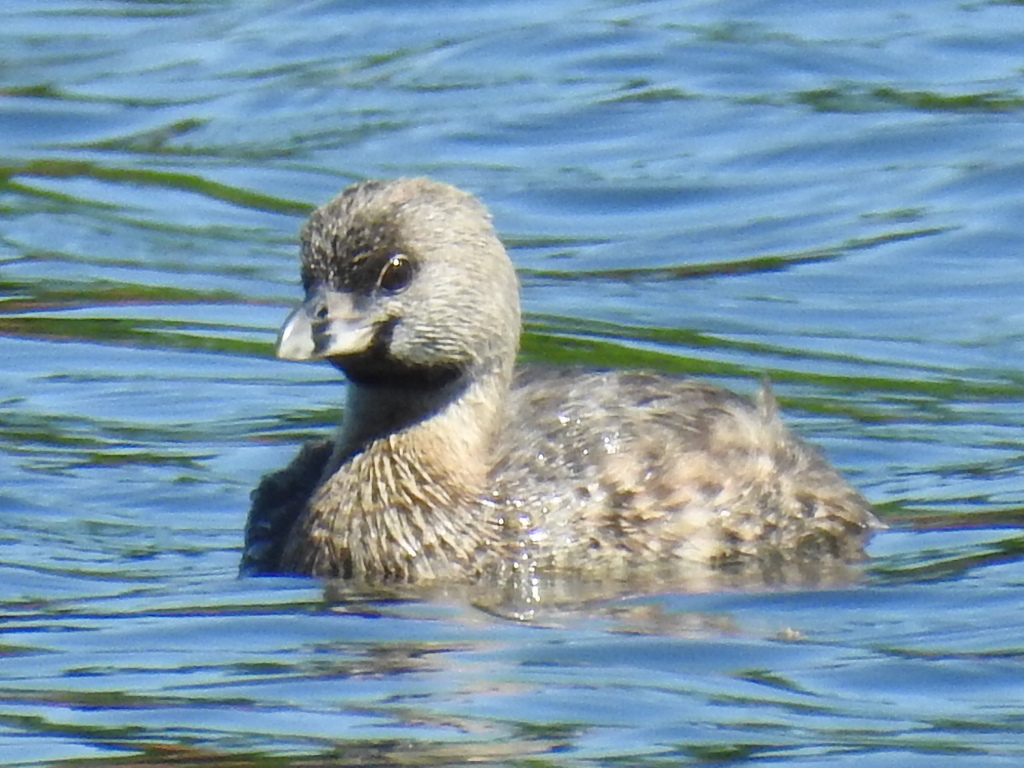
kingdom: Animalia
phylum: Chordata
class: Aves
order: Podicipediformes
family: Podicipedidae
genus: Podilymbus
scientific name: Podilymbus podiceps
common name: Pied-billed grebe
